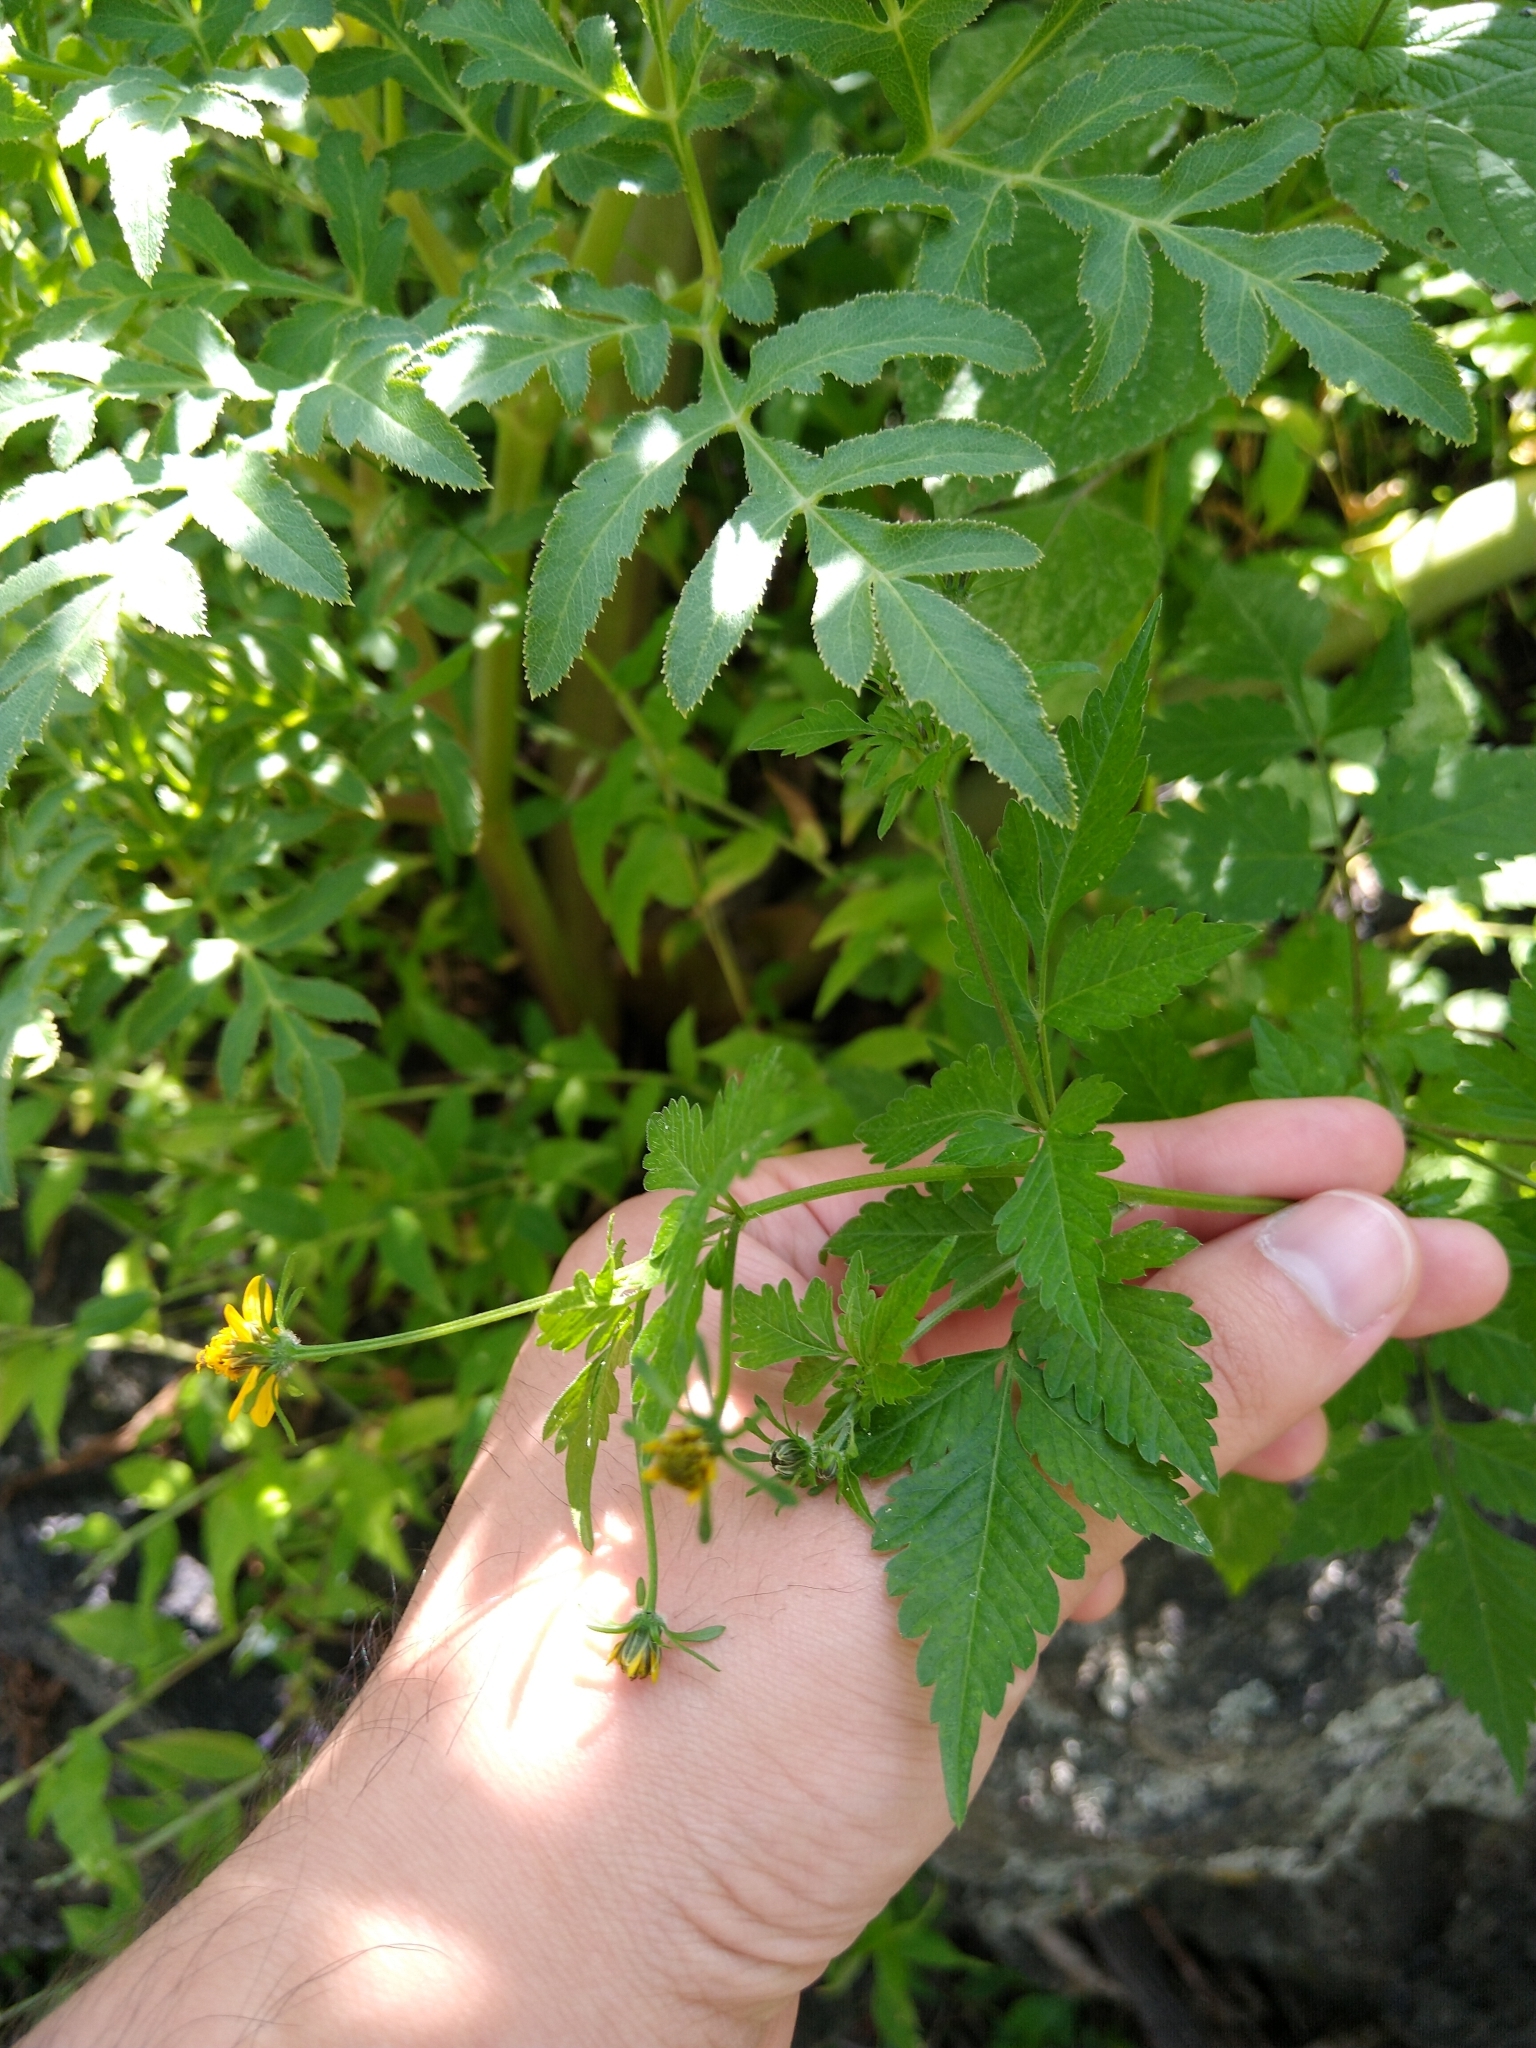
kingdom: Plantae
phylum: Tracheophyta
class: Magnoliopsida
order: Asterales
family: Asteraceae
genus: Bidens
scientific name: Bidens bigelovii
